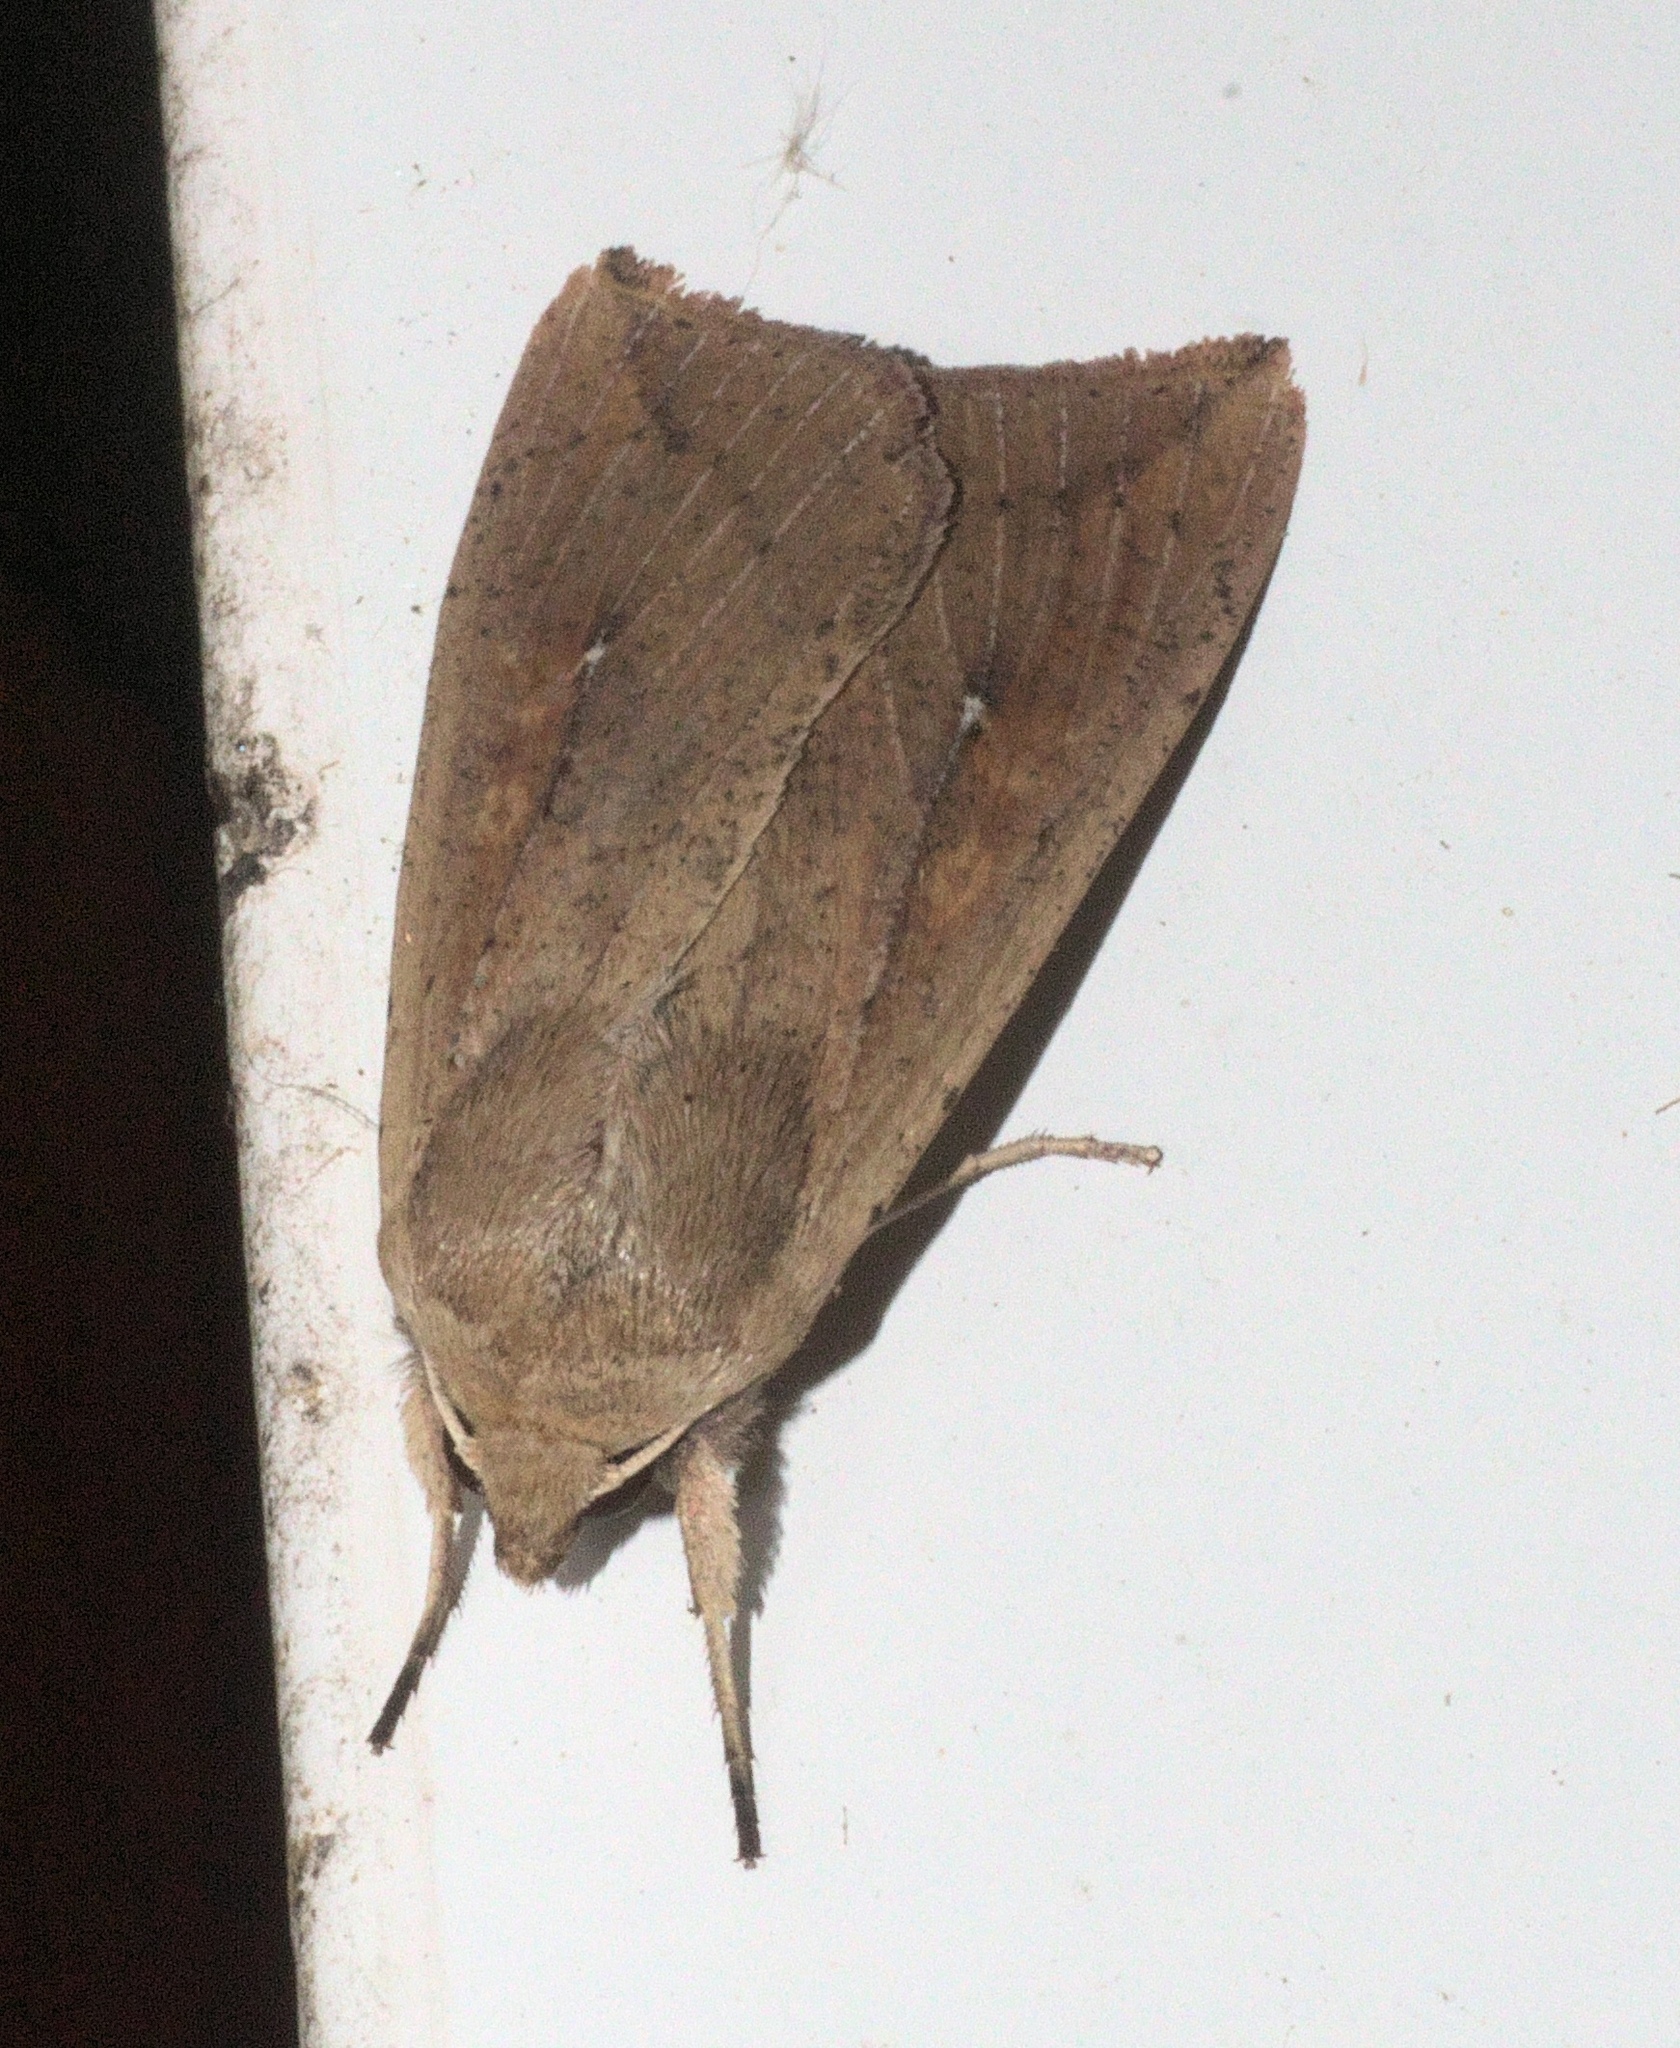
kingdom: Animalia
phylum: Arthropoda
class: Insecta
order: Lepidoptera
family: Noctuidae
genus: Mythimna
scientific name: Mythimna unipuncta
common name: White-speck
